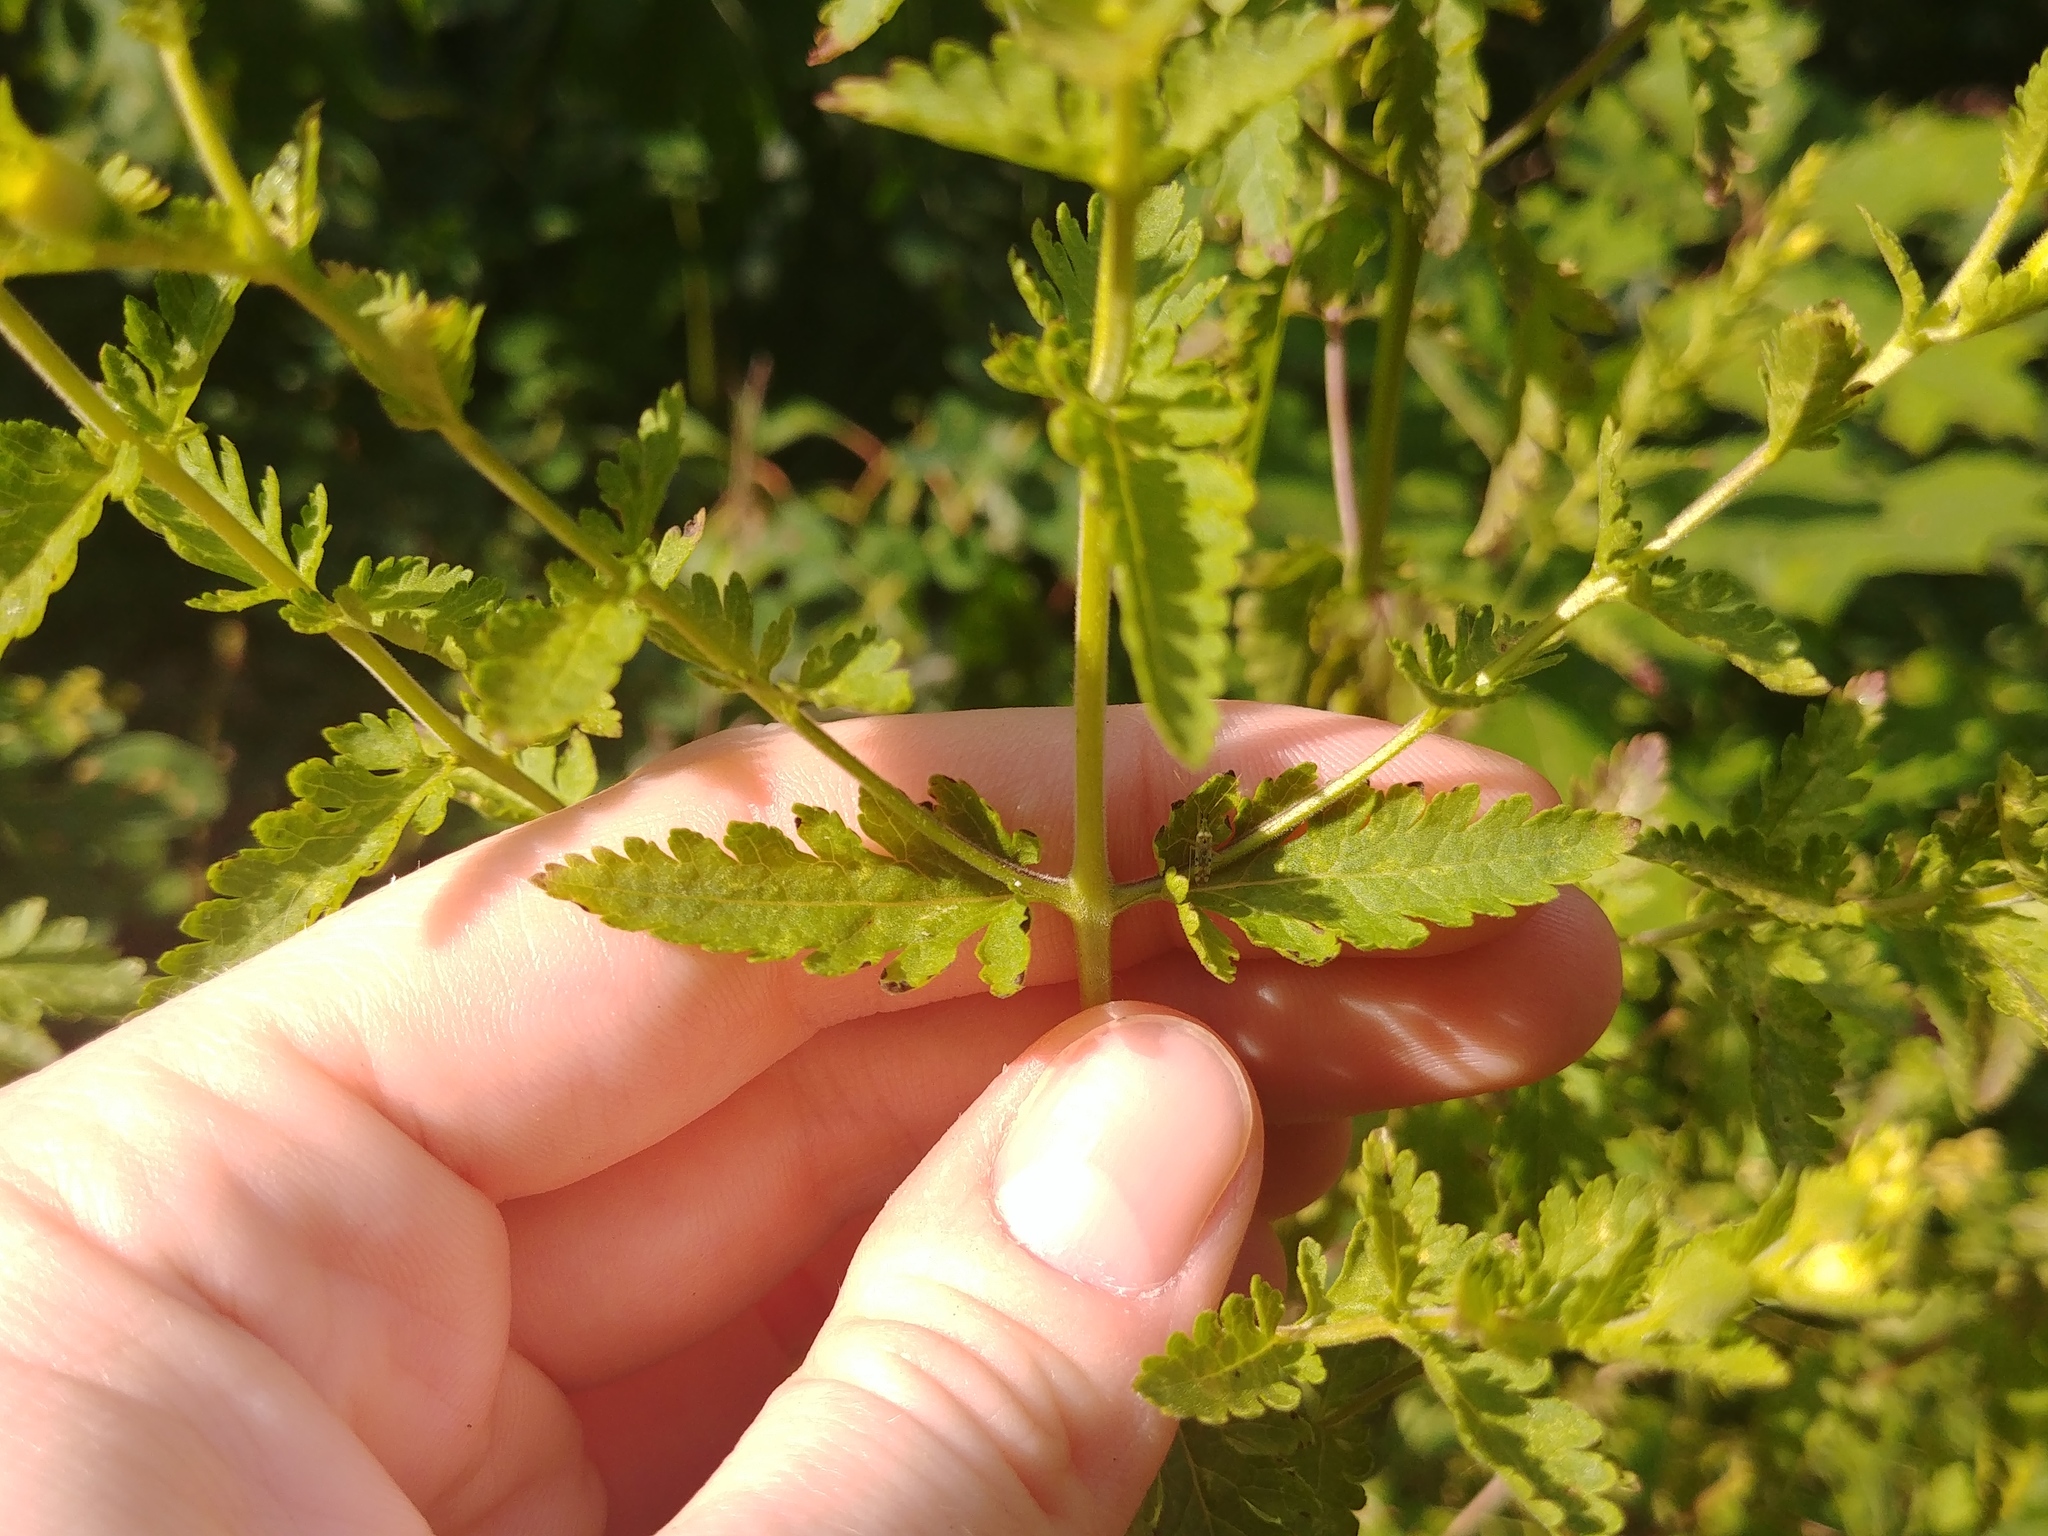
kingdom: Plantae
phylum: Tracheophyta
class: Magnoliopsida
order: Lamiales
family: Orobanchaceae
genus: Aureolaria
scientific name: Aureolaria pedicularia
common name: Annual false foxglove
